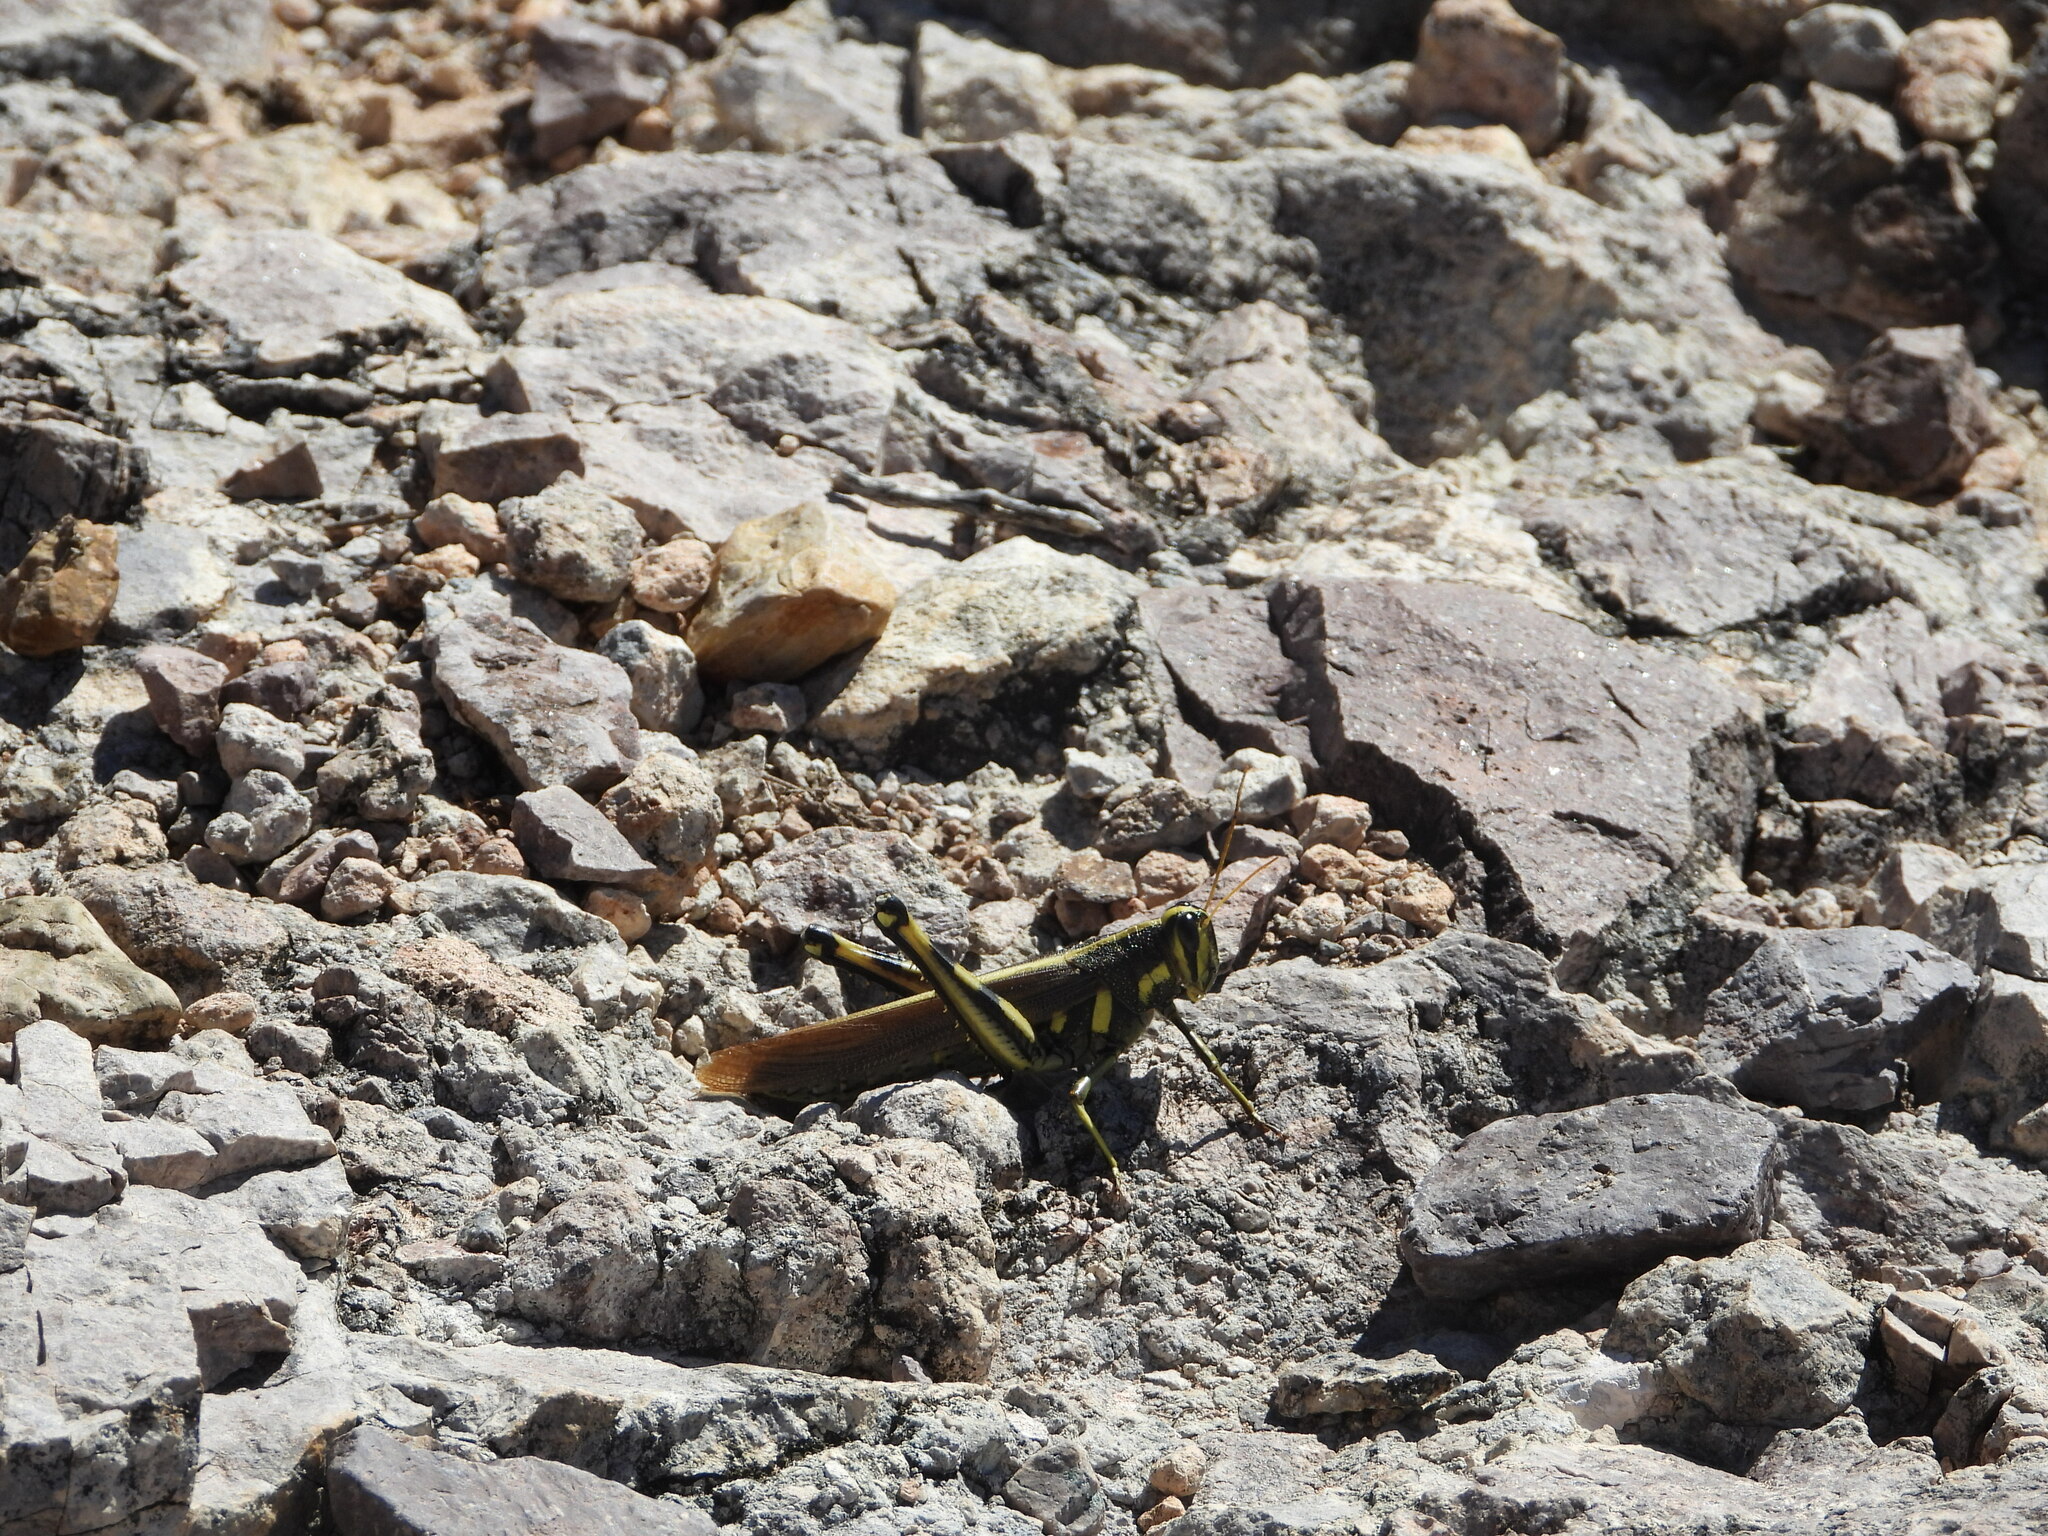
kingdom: Animalia
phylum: Arthropoda
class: Insecta
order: Orthoptera
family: Acrididae
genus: Schistocerca
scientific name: Schistocerca albolineata
